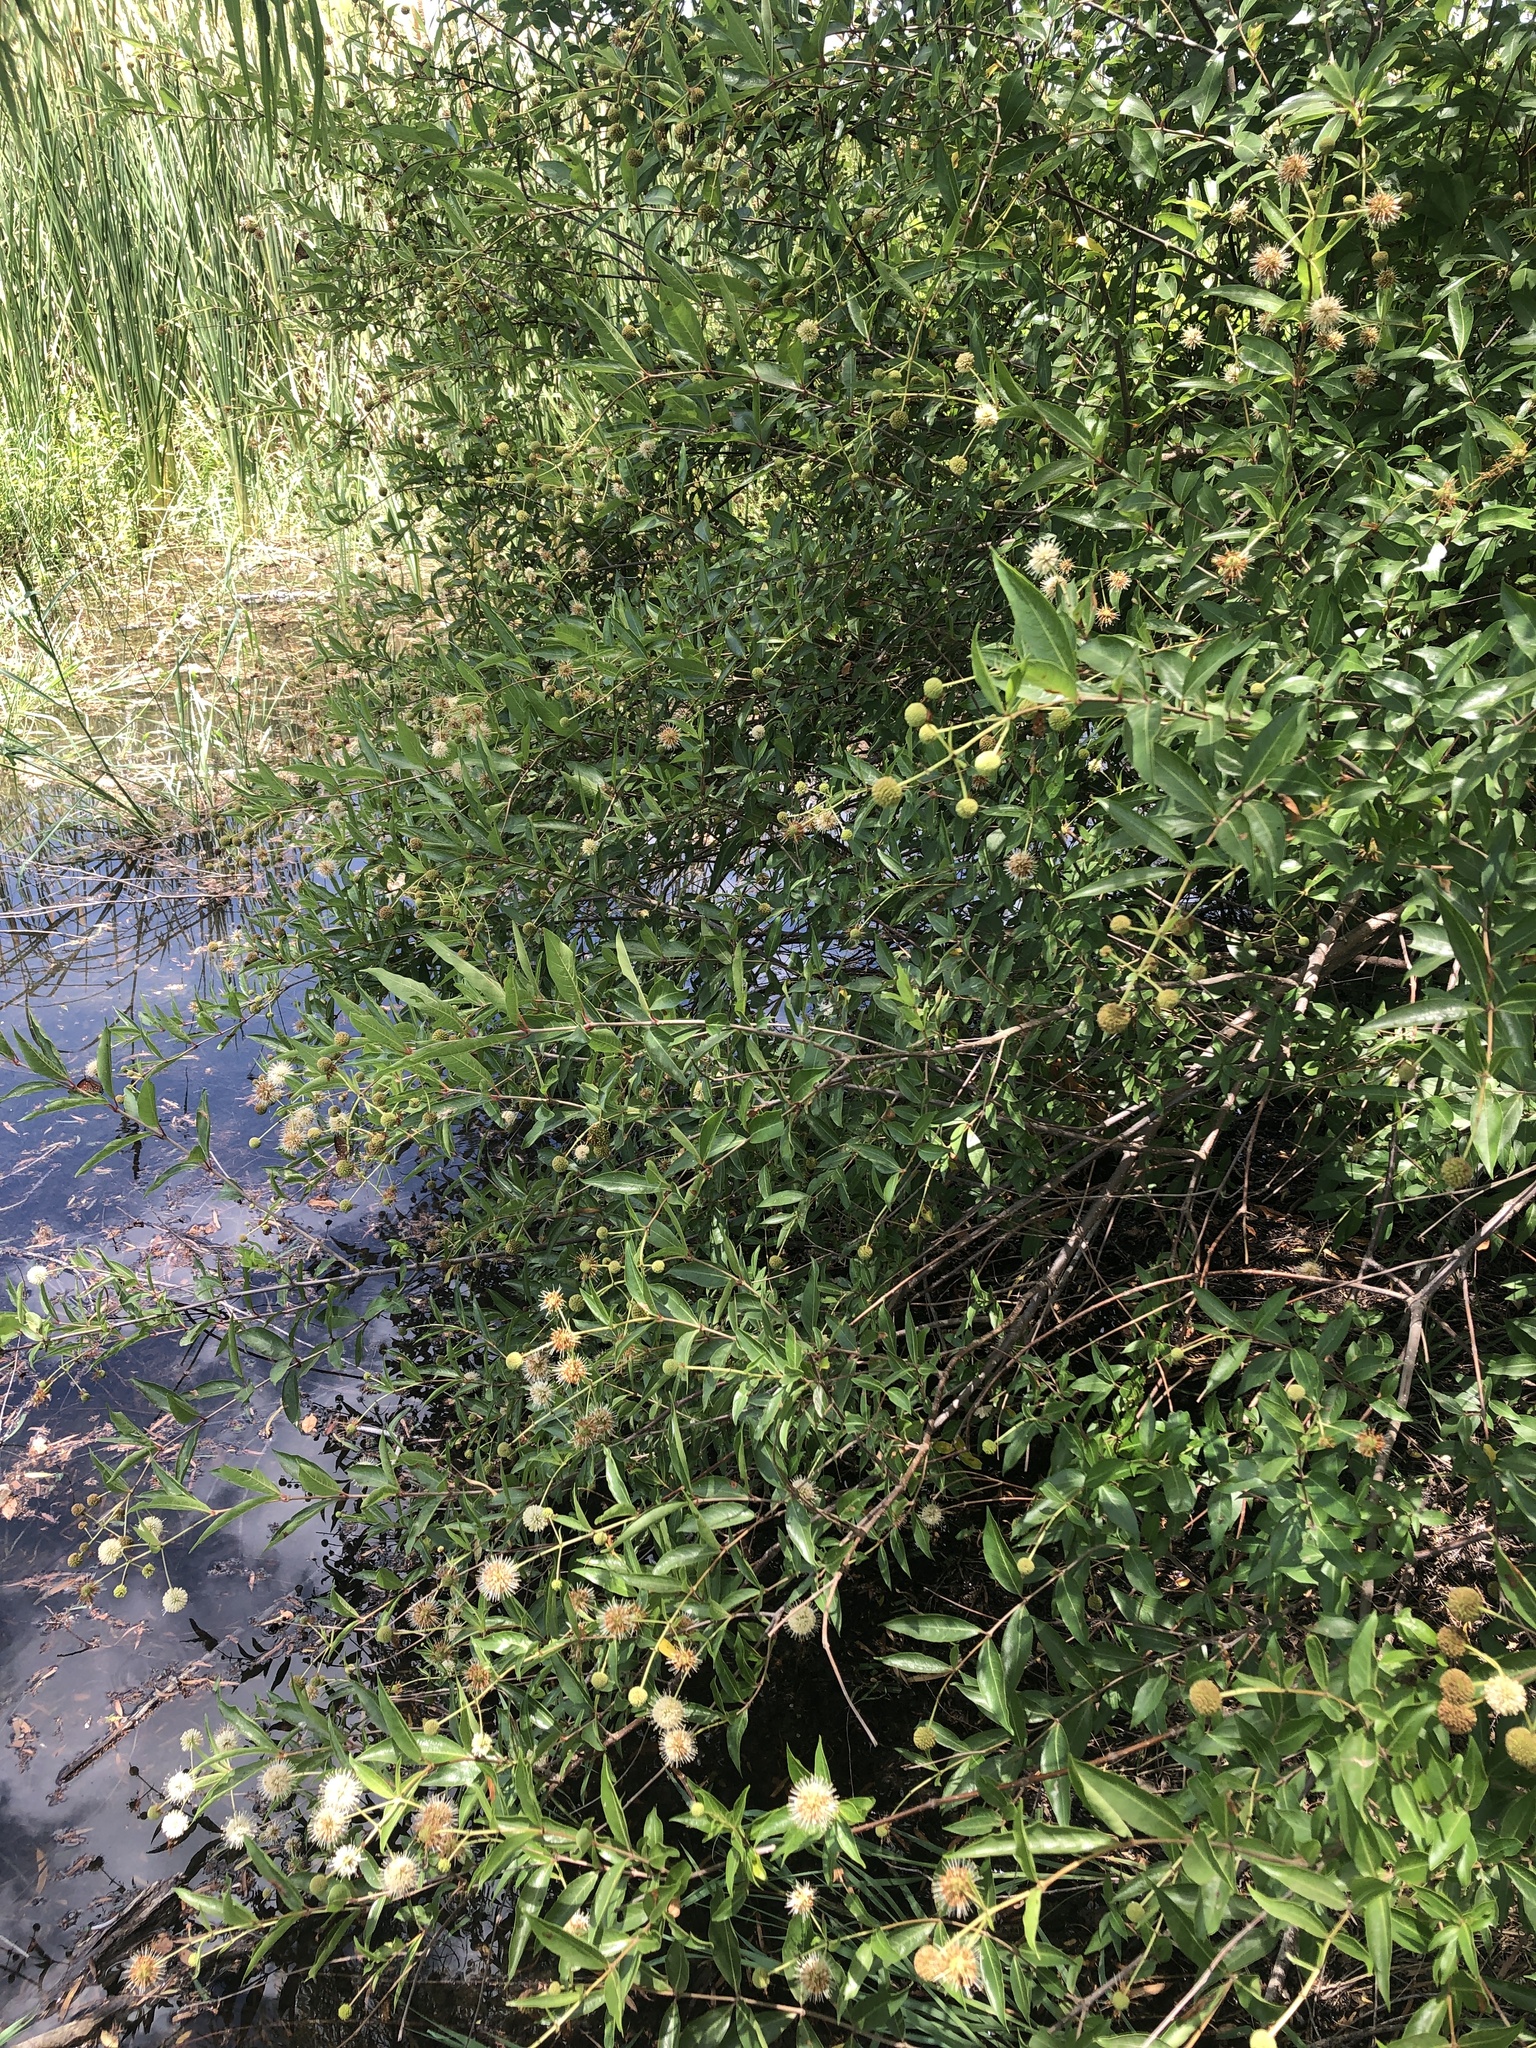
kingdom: Plantae
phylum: Tracheophyta
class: Magnoliopsida
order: Gentianales
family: Rubiaceae
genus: Cephalanthus
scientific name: Cephalanthus occidentalis
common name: Button-willow
